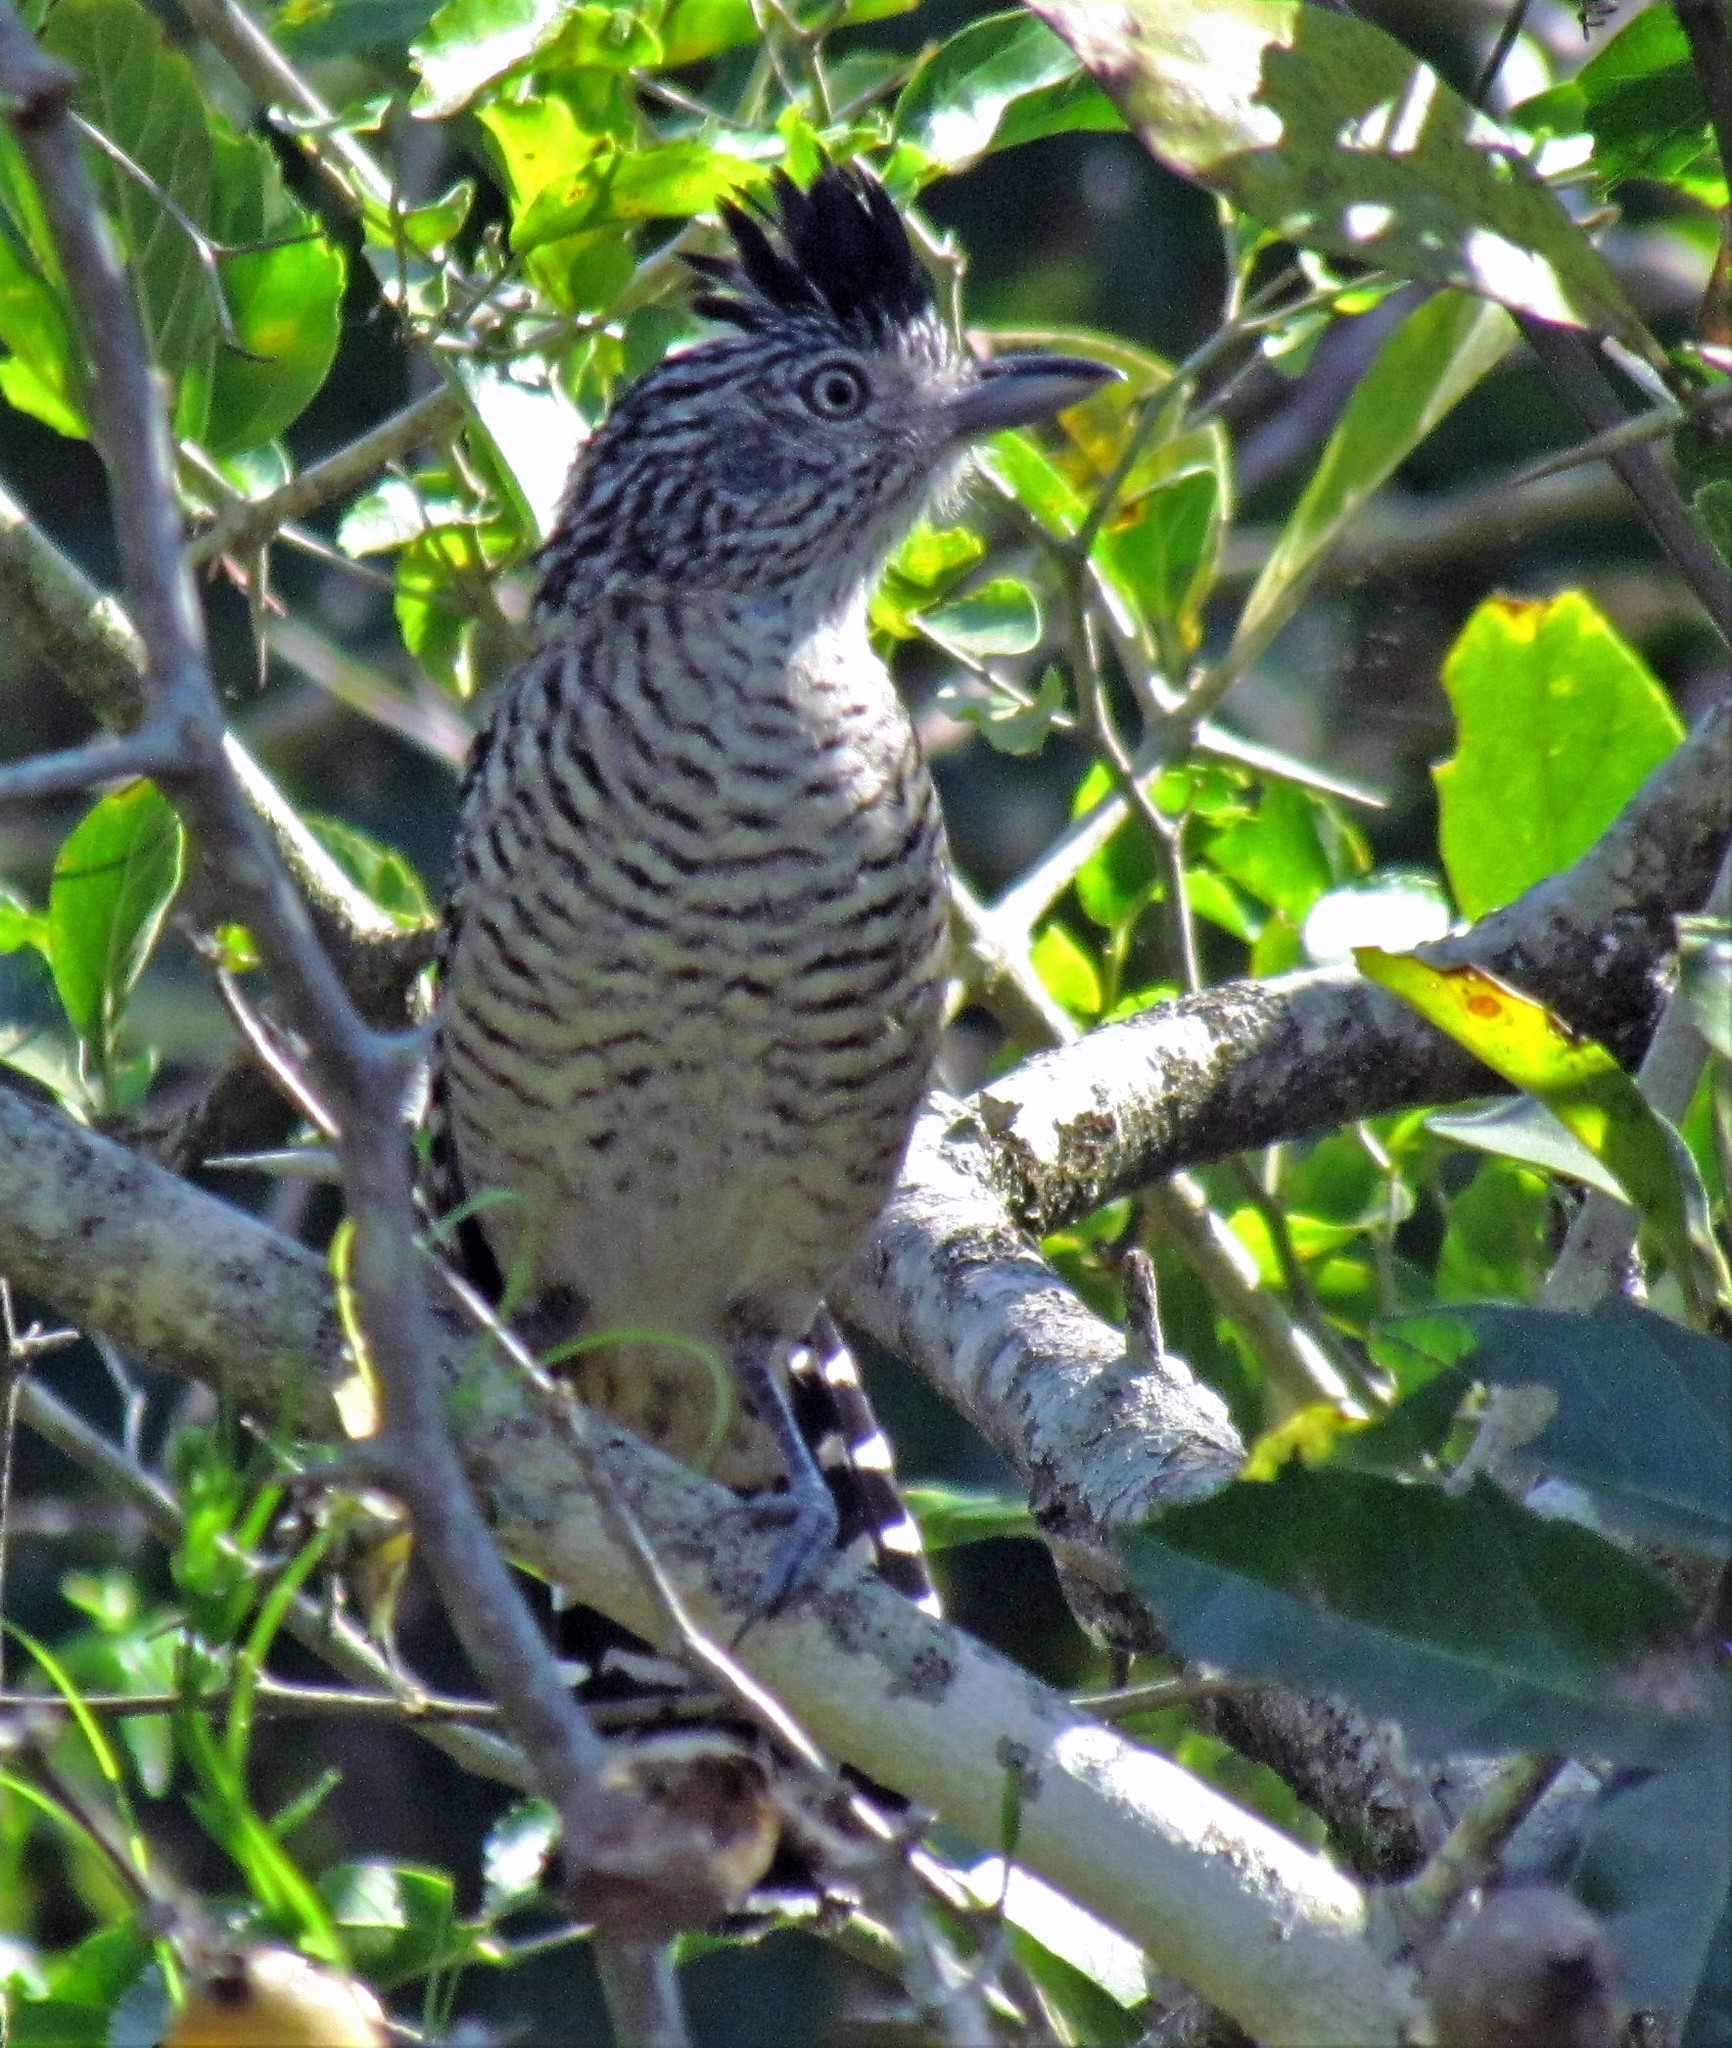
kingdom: Animalia
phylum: Chordata
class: Aves
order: Passeriformes
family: Thamnophilidae
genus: Thamnophilus
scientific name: Thamnophilus doliatus
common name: Barred antshrike
